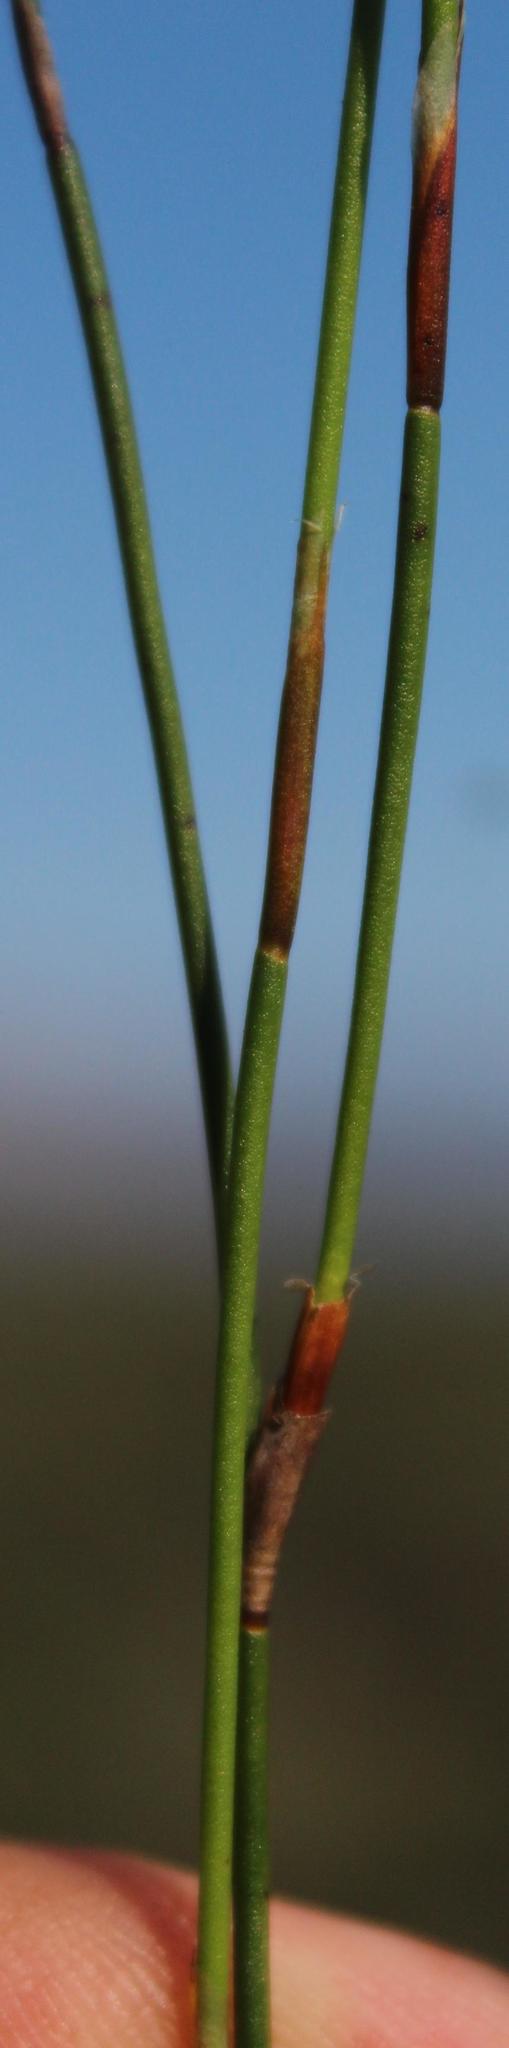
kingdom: Plantae
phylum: Tracheophyta
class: Liliopsida
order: Poales
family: Restionaceae
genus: Restio
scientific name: Restio capensis
